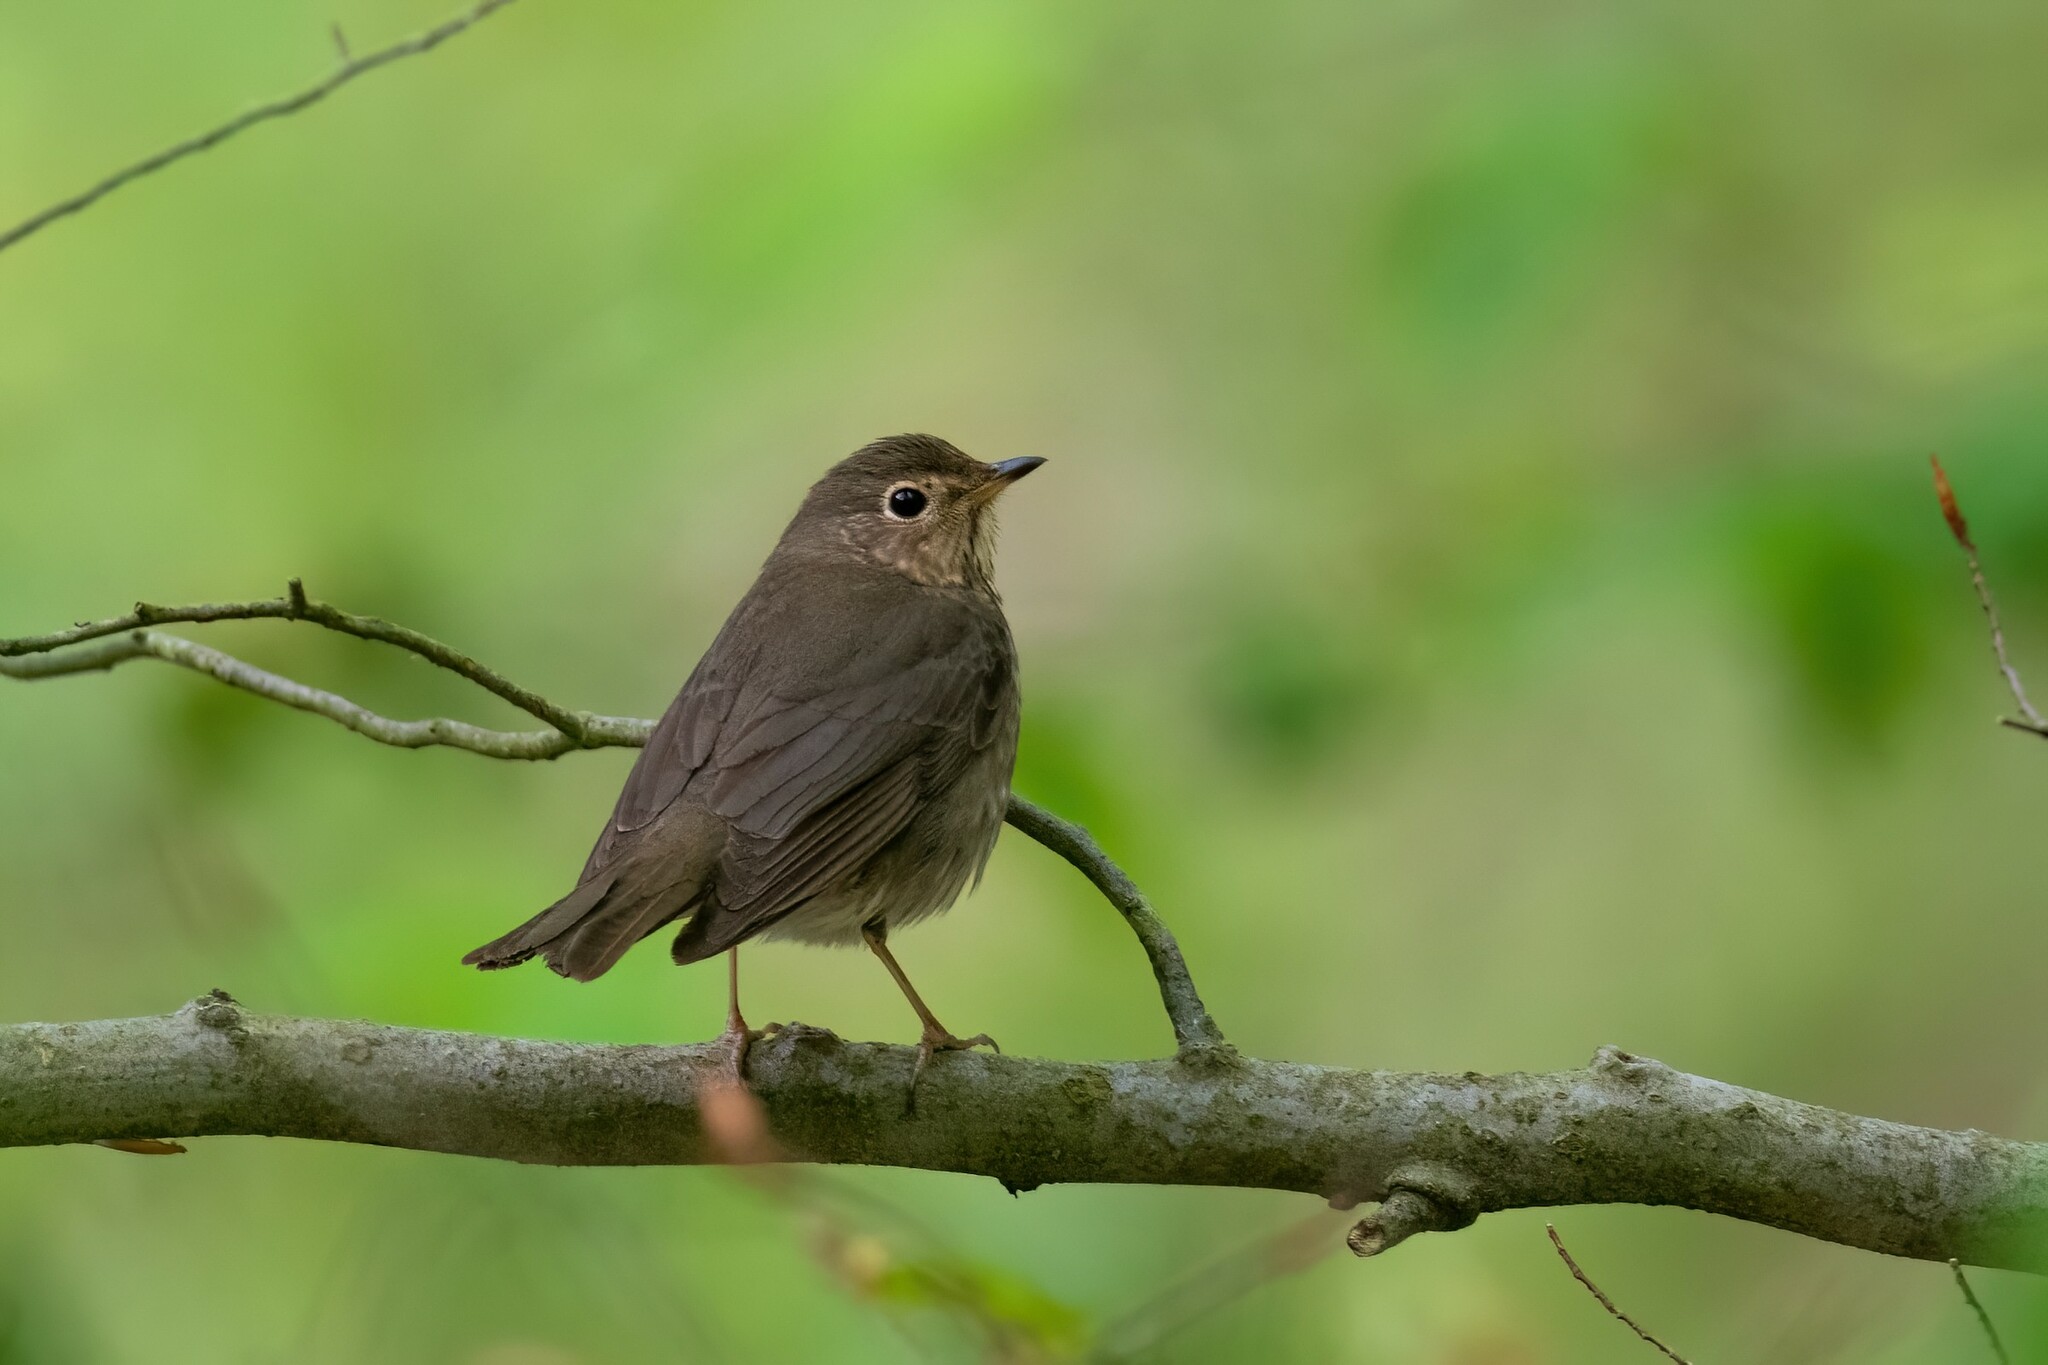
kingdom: Animalia
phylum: Chordata
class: Aves
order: Passeriformes
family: Turdidae
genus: Catharus
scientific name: Catharus ustulatus
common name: Swainson's thrush
